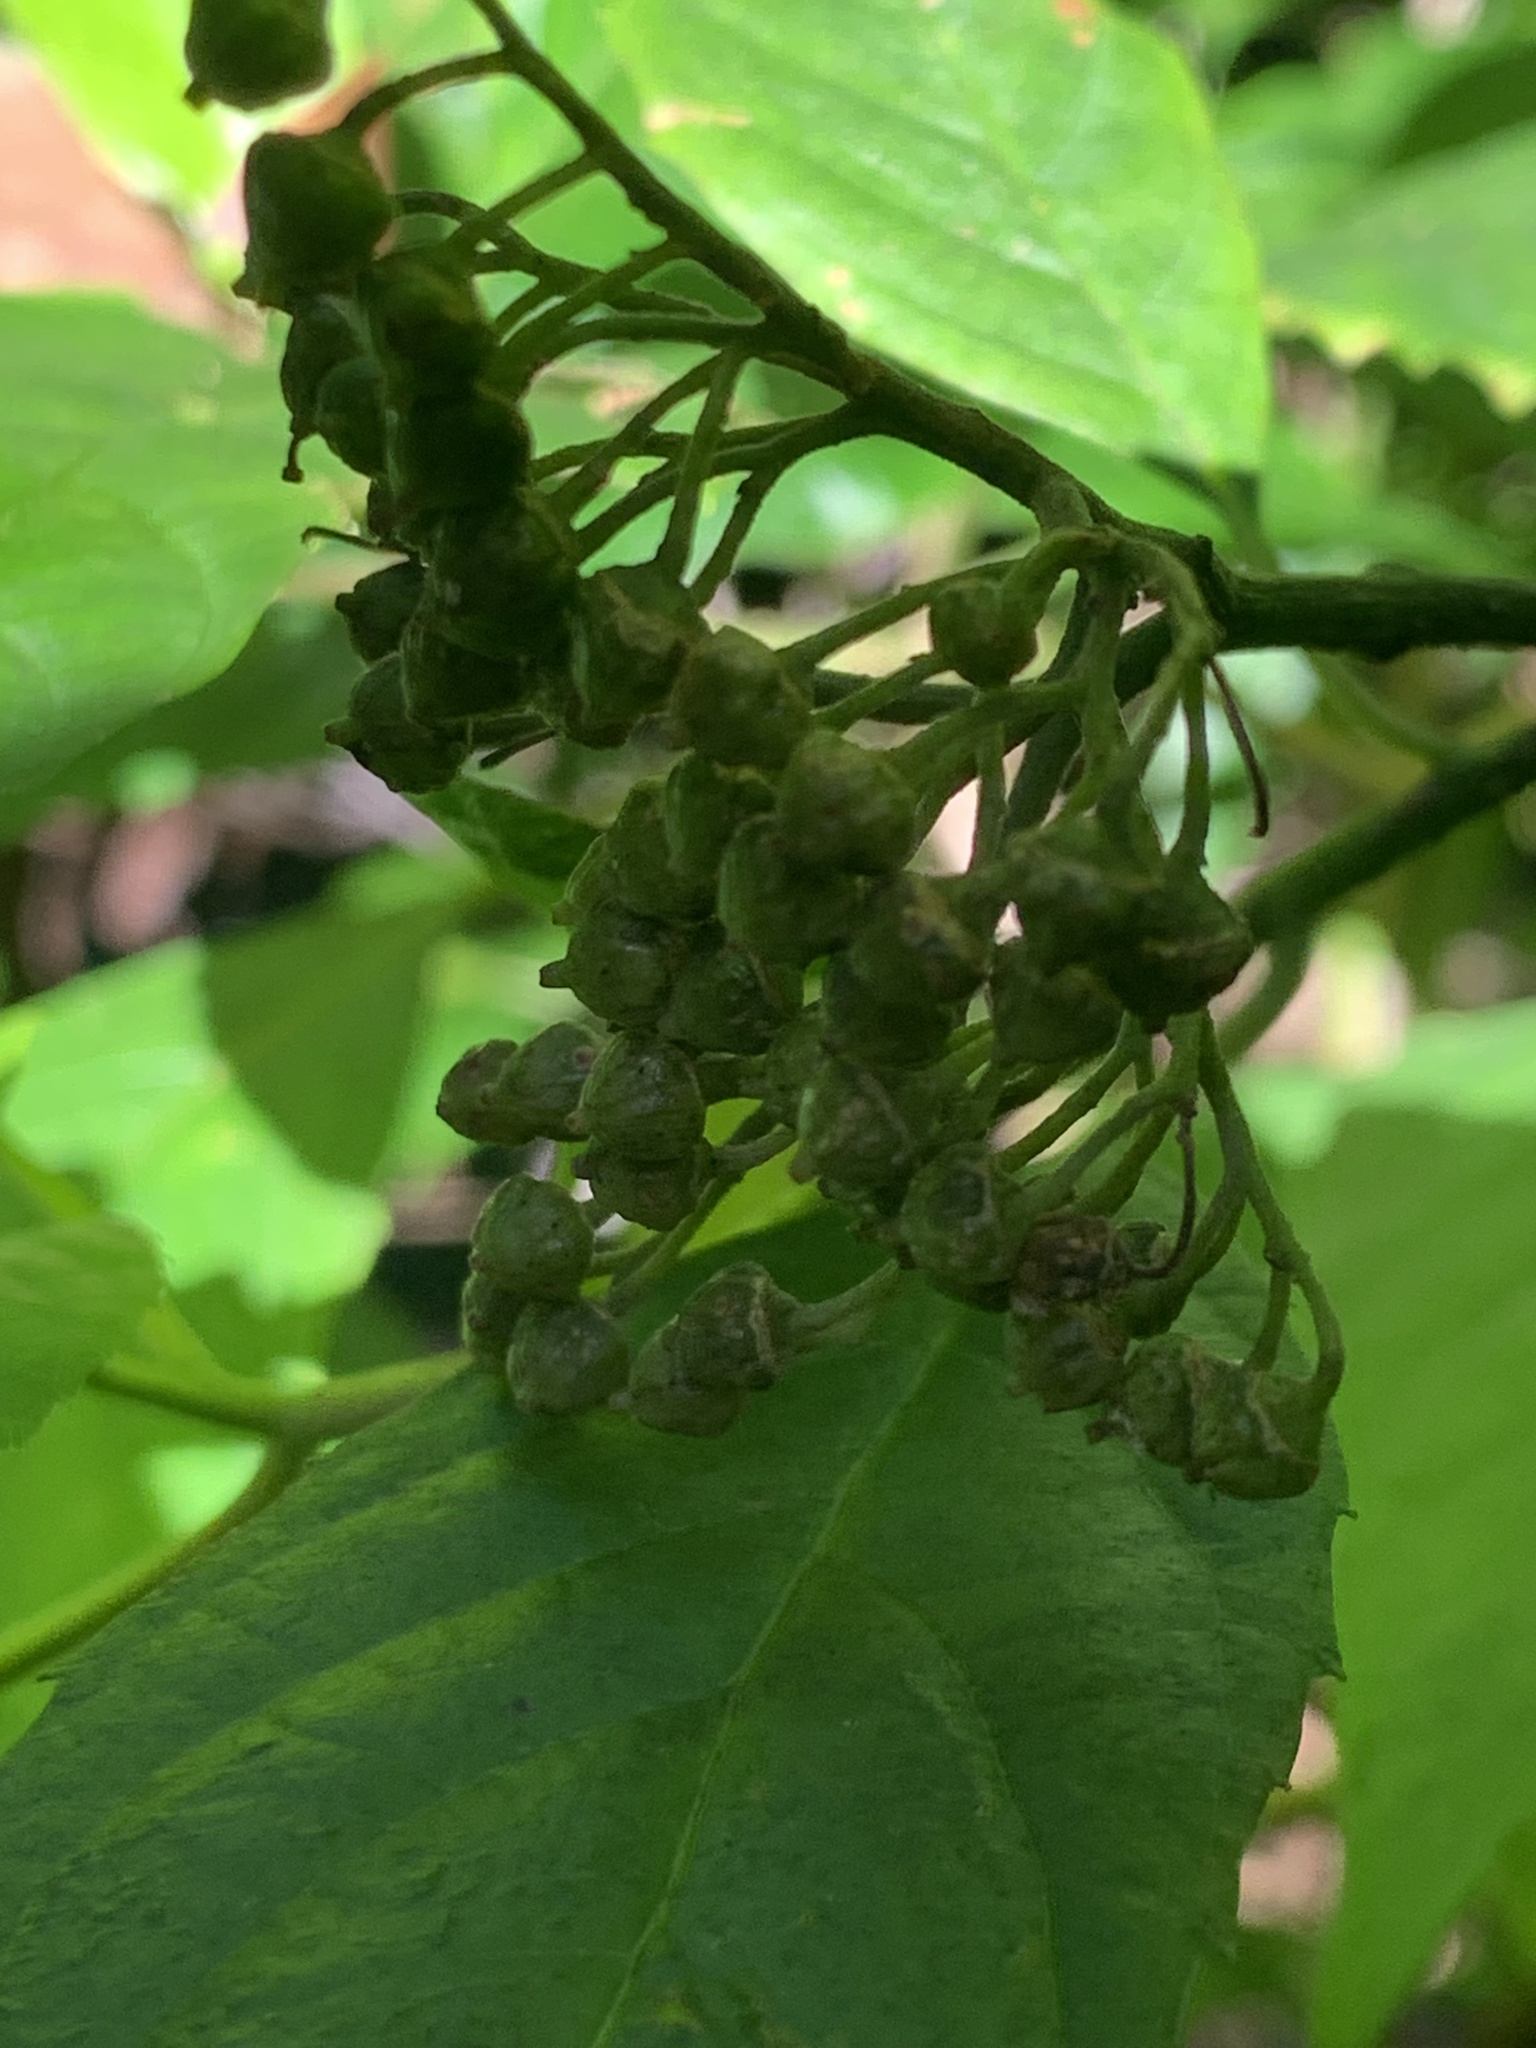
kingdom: Plantae
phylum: Tracheophyta
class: Magnoliopsida
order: Asterales
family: Rousseaceae
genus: Abrophyllum
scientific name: Abrophyllum ornans
